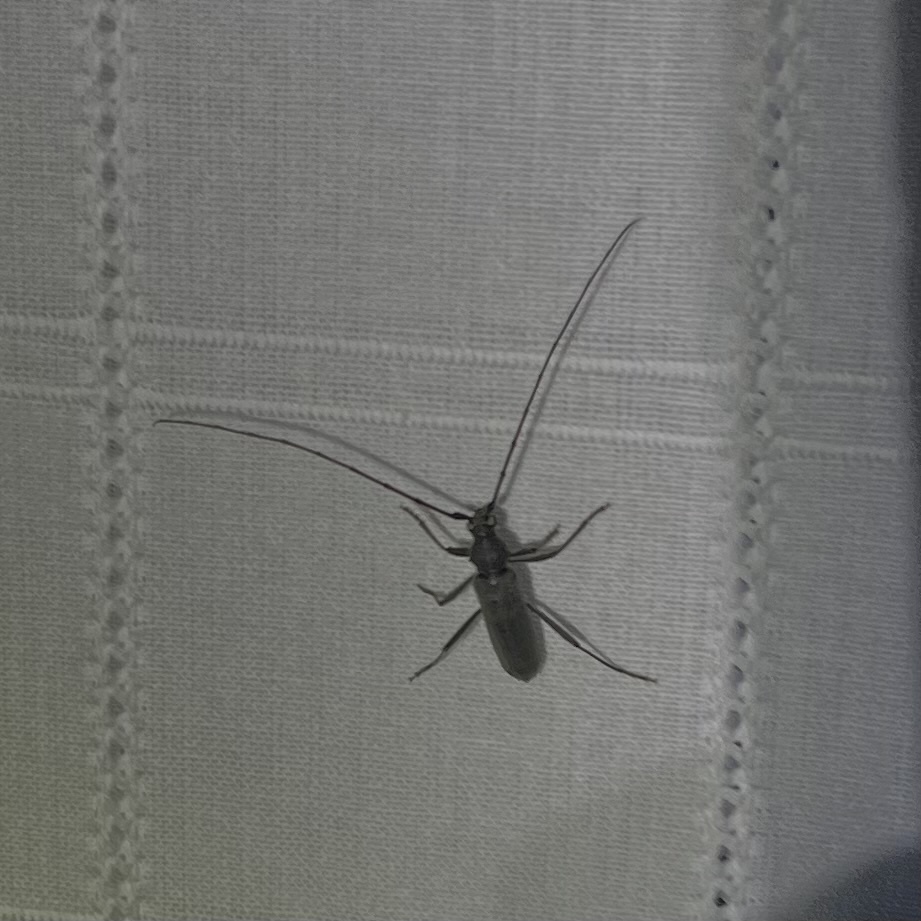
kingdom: Animalia
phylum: Arthropoda
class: Insecta
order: Coleoptera
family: Cerambycidae
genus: Knulliana
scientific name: Knulliana cincta
